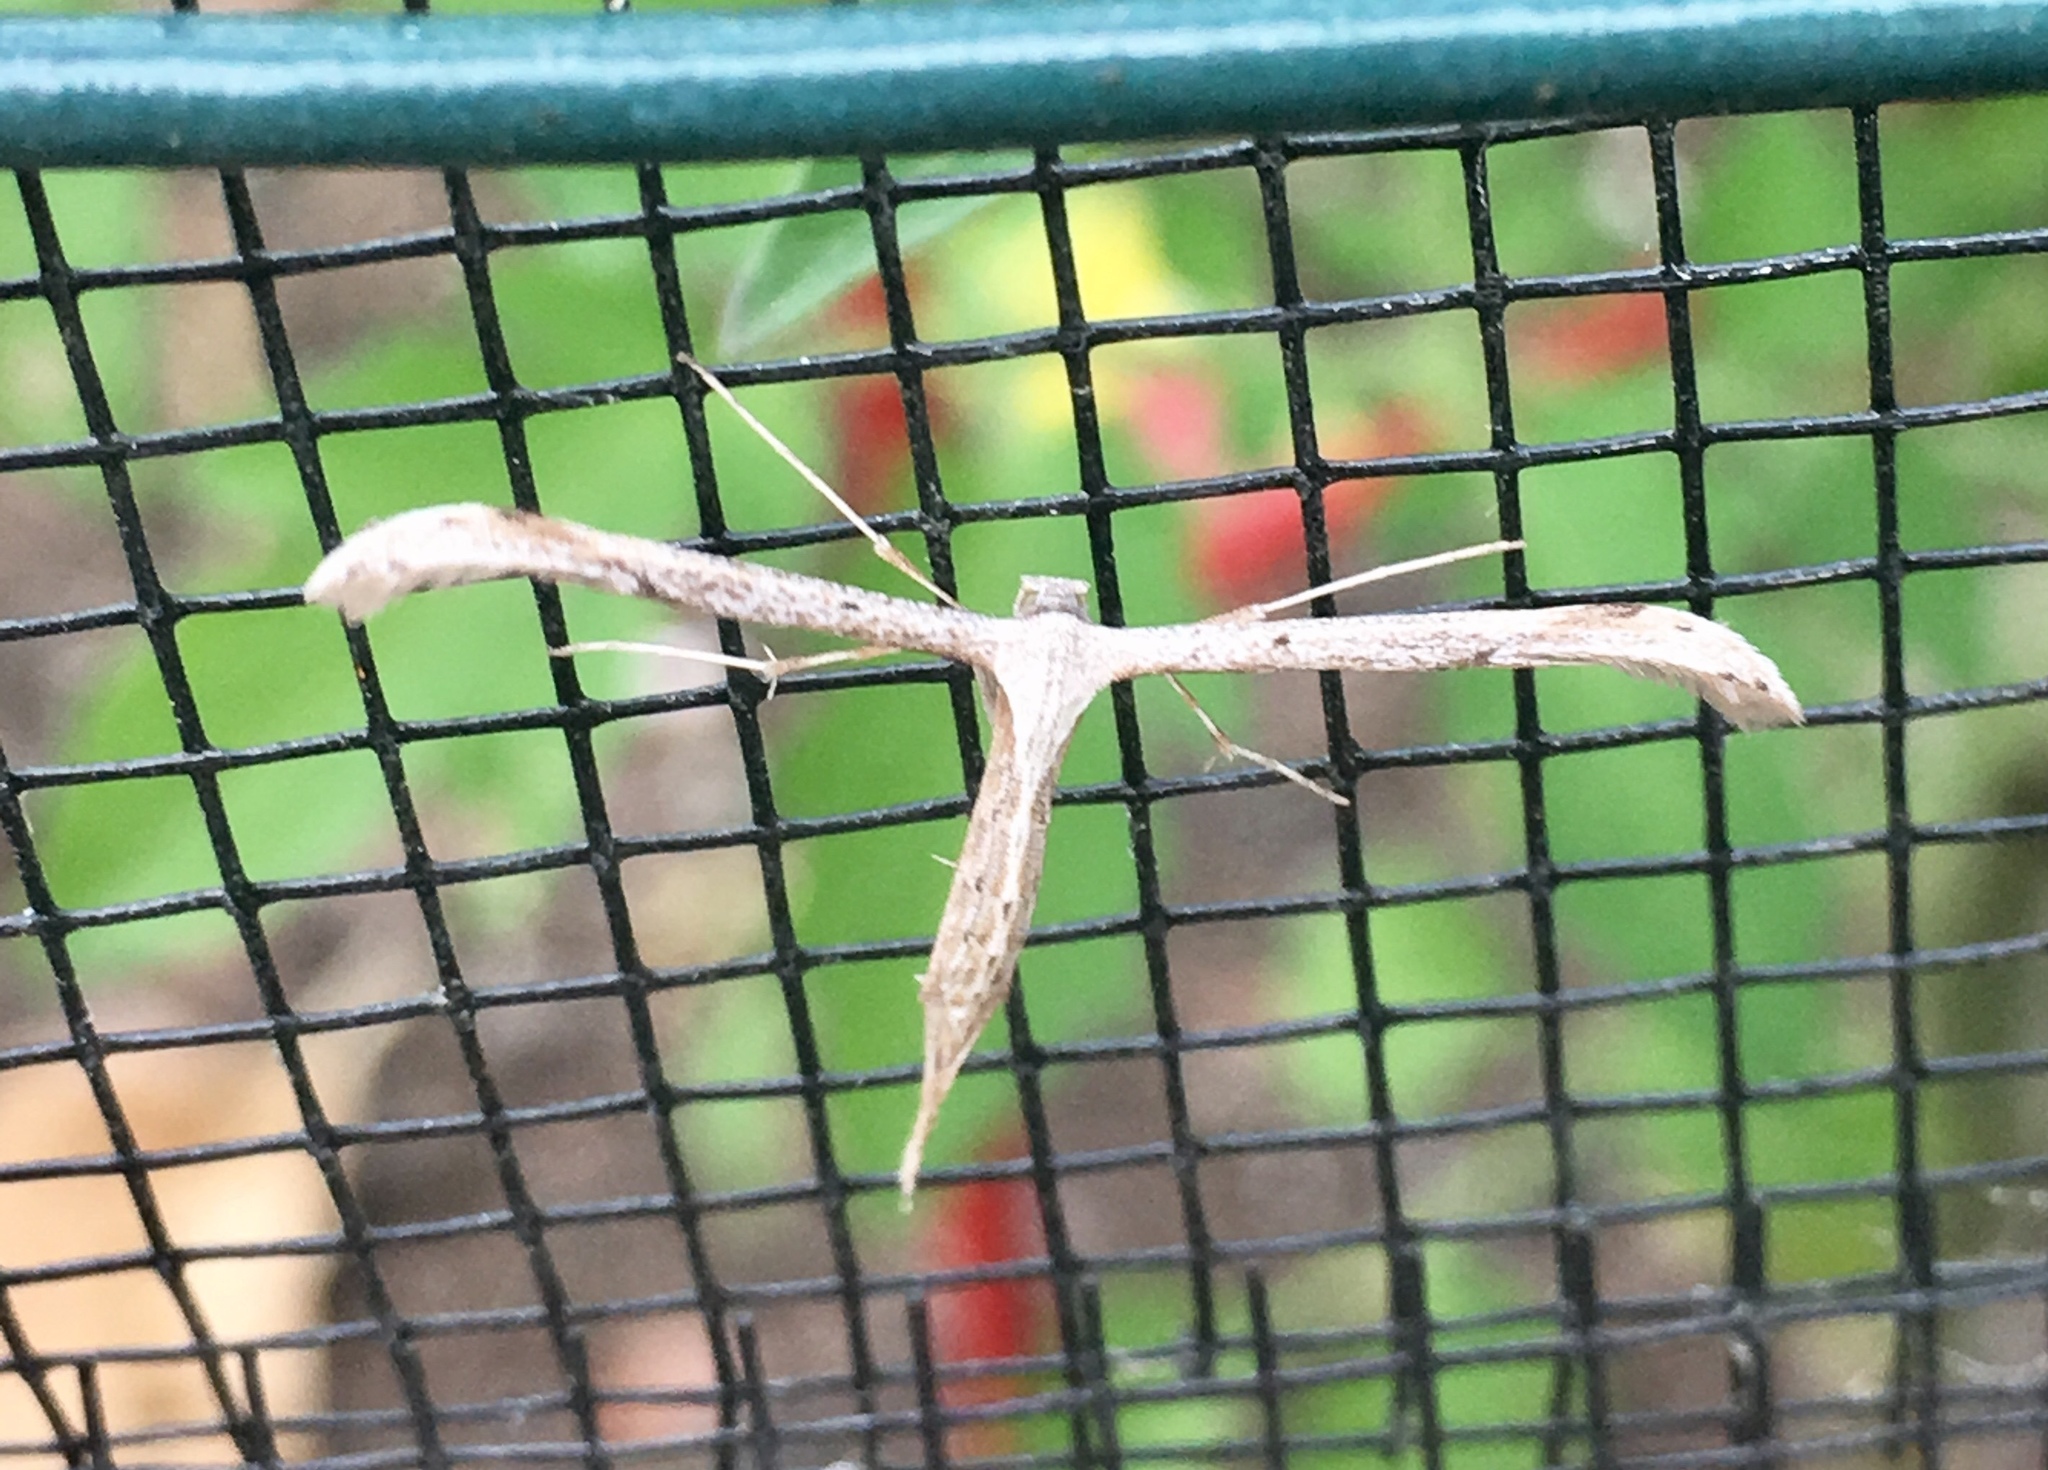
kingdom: Animalia
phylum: Arthropoda
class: Insecta
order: Lepidoptera
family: Pterophoridae
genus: Emmelina
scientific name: Emmelina monodactyla
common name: Common plume
